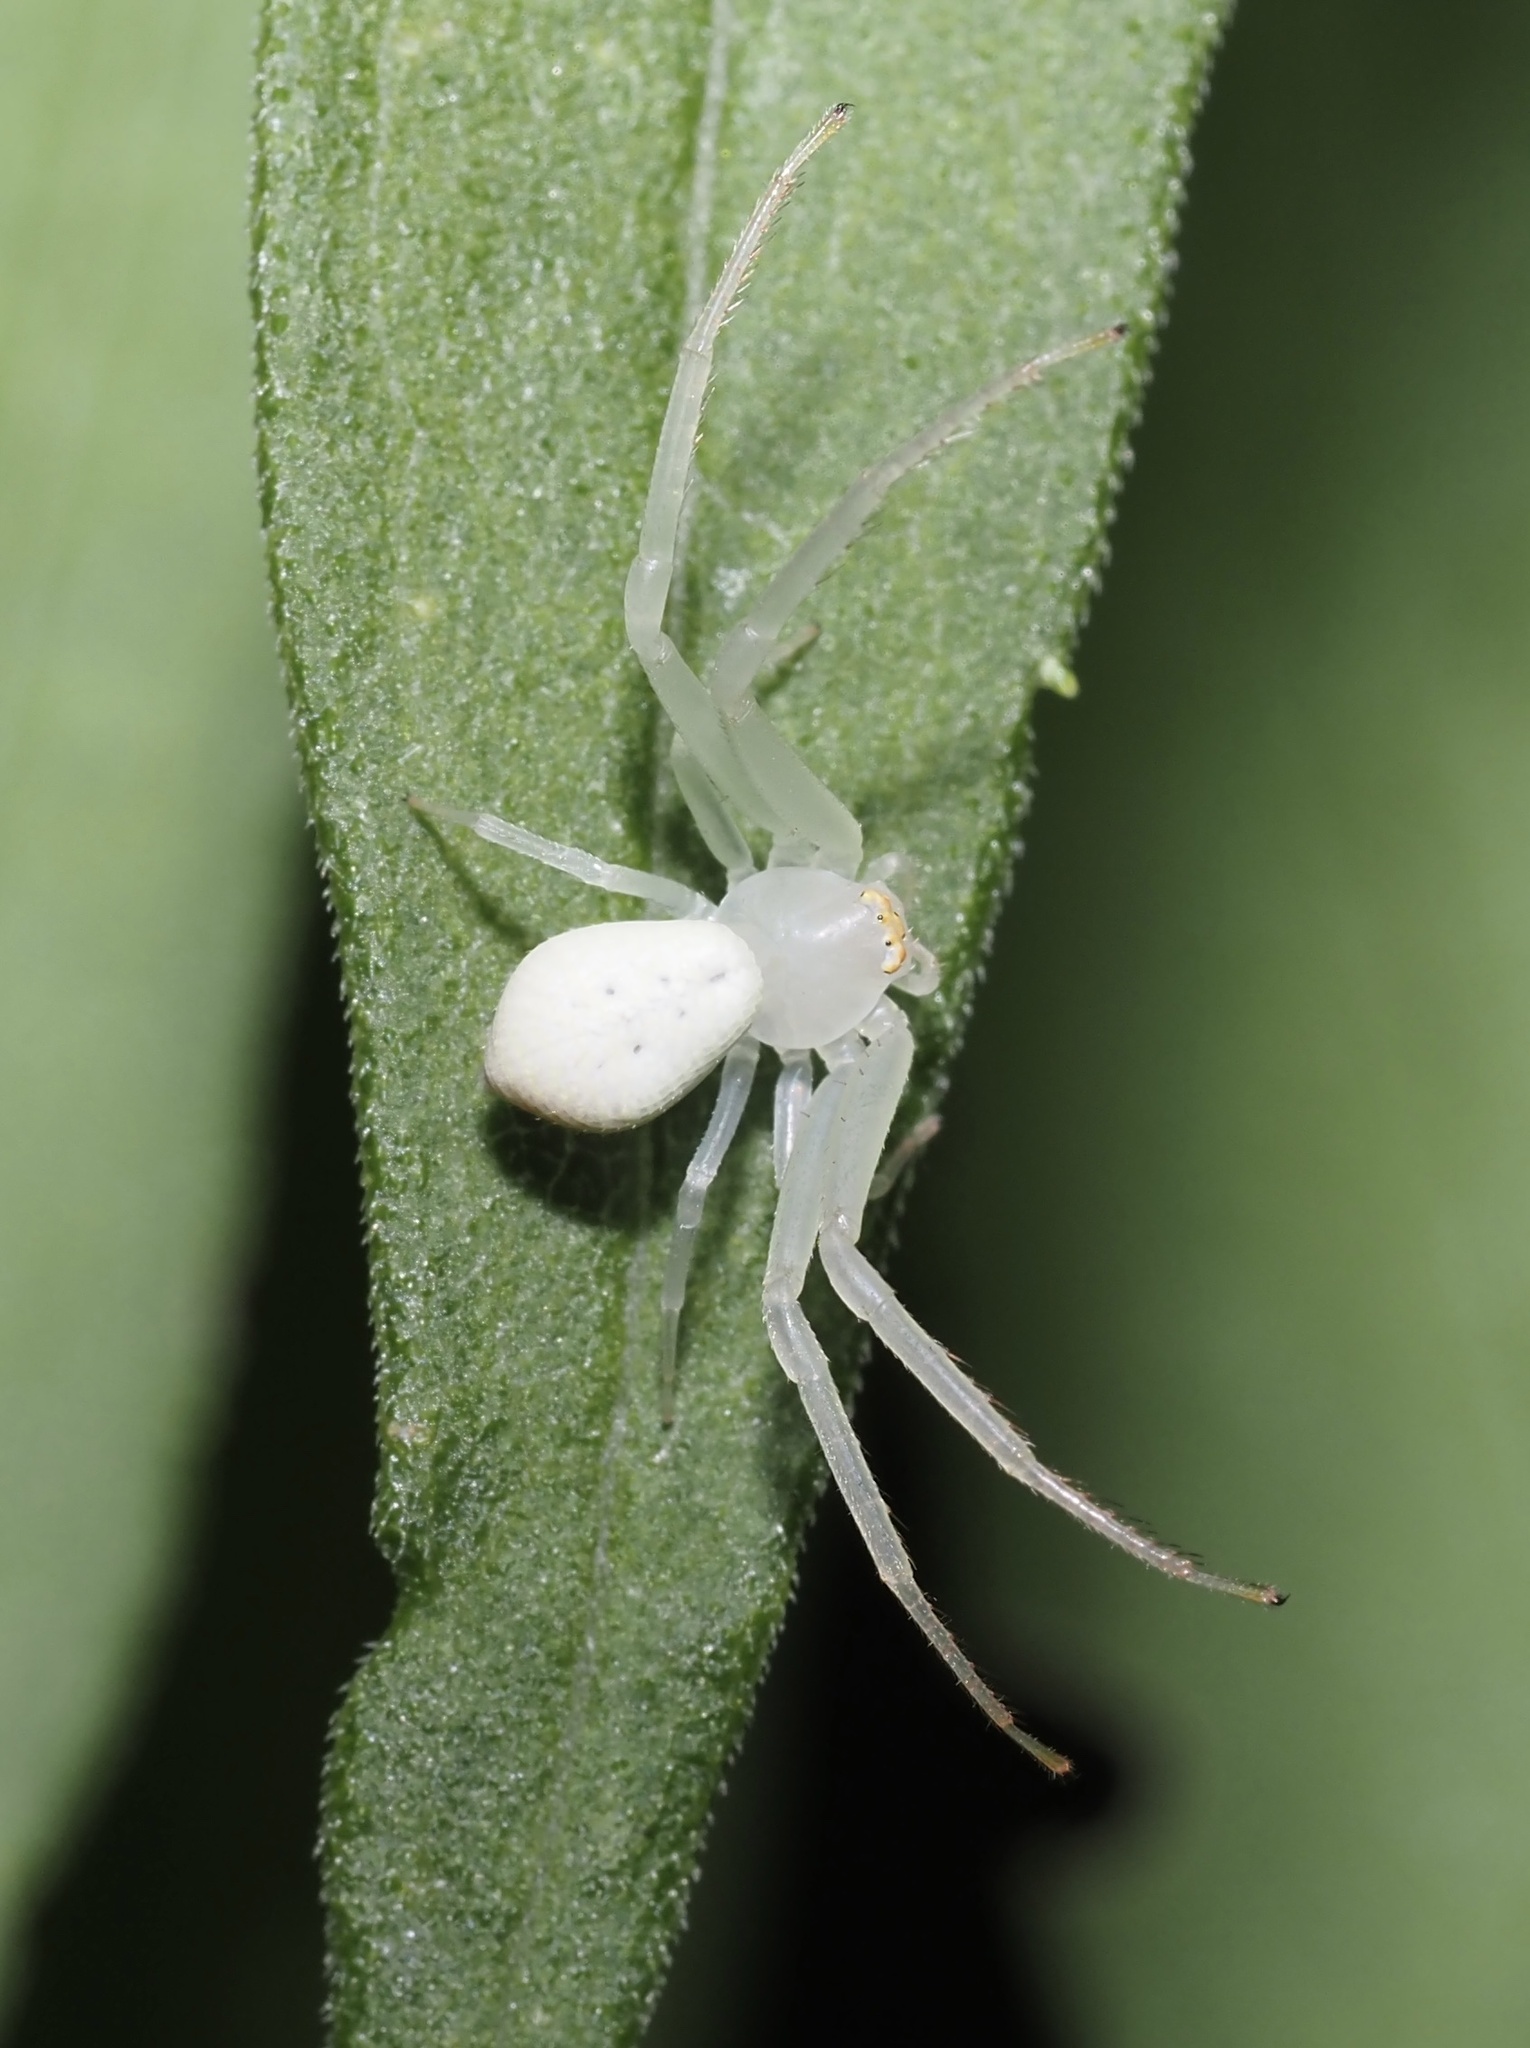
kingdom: Animalia
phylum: Arthropoda
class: Arachnida
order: Araneae
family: Thomisidae
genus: Misumessus
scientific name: Misumessus oblongus
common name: American green crab spider
